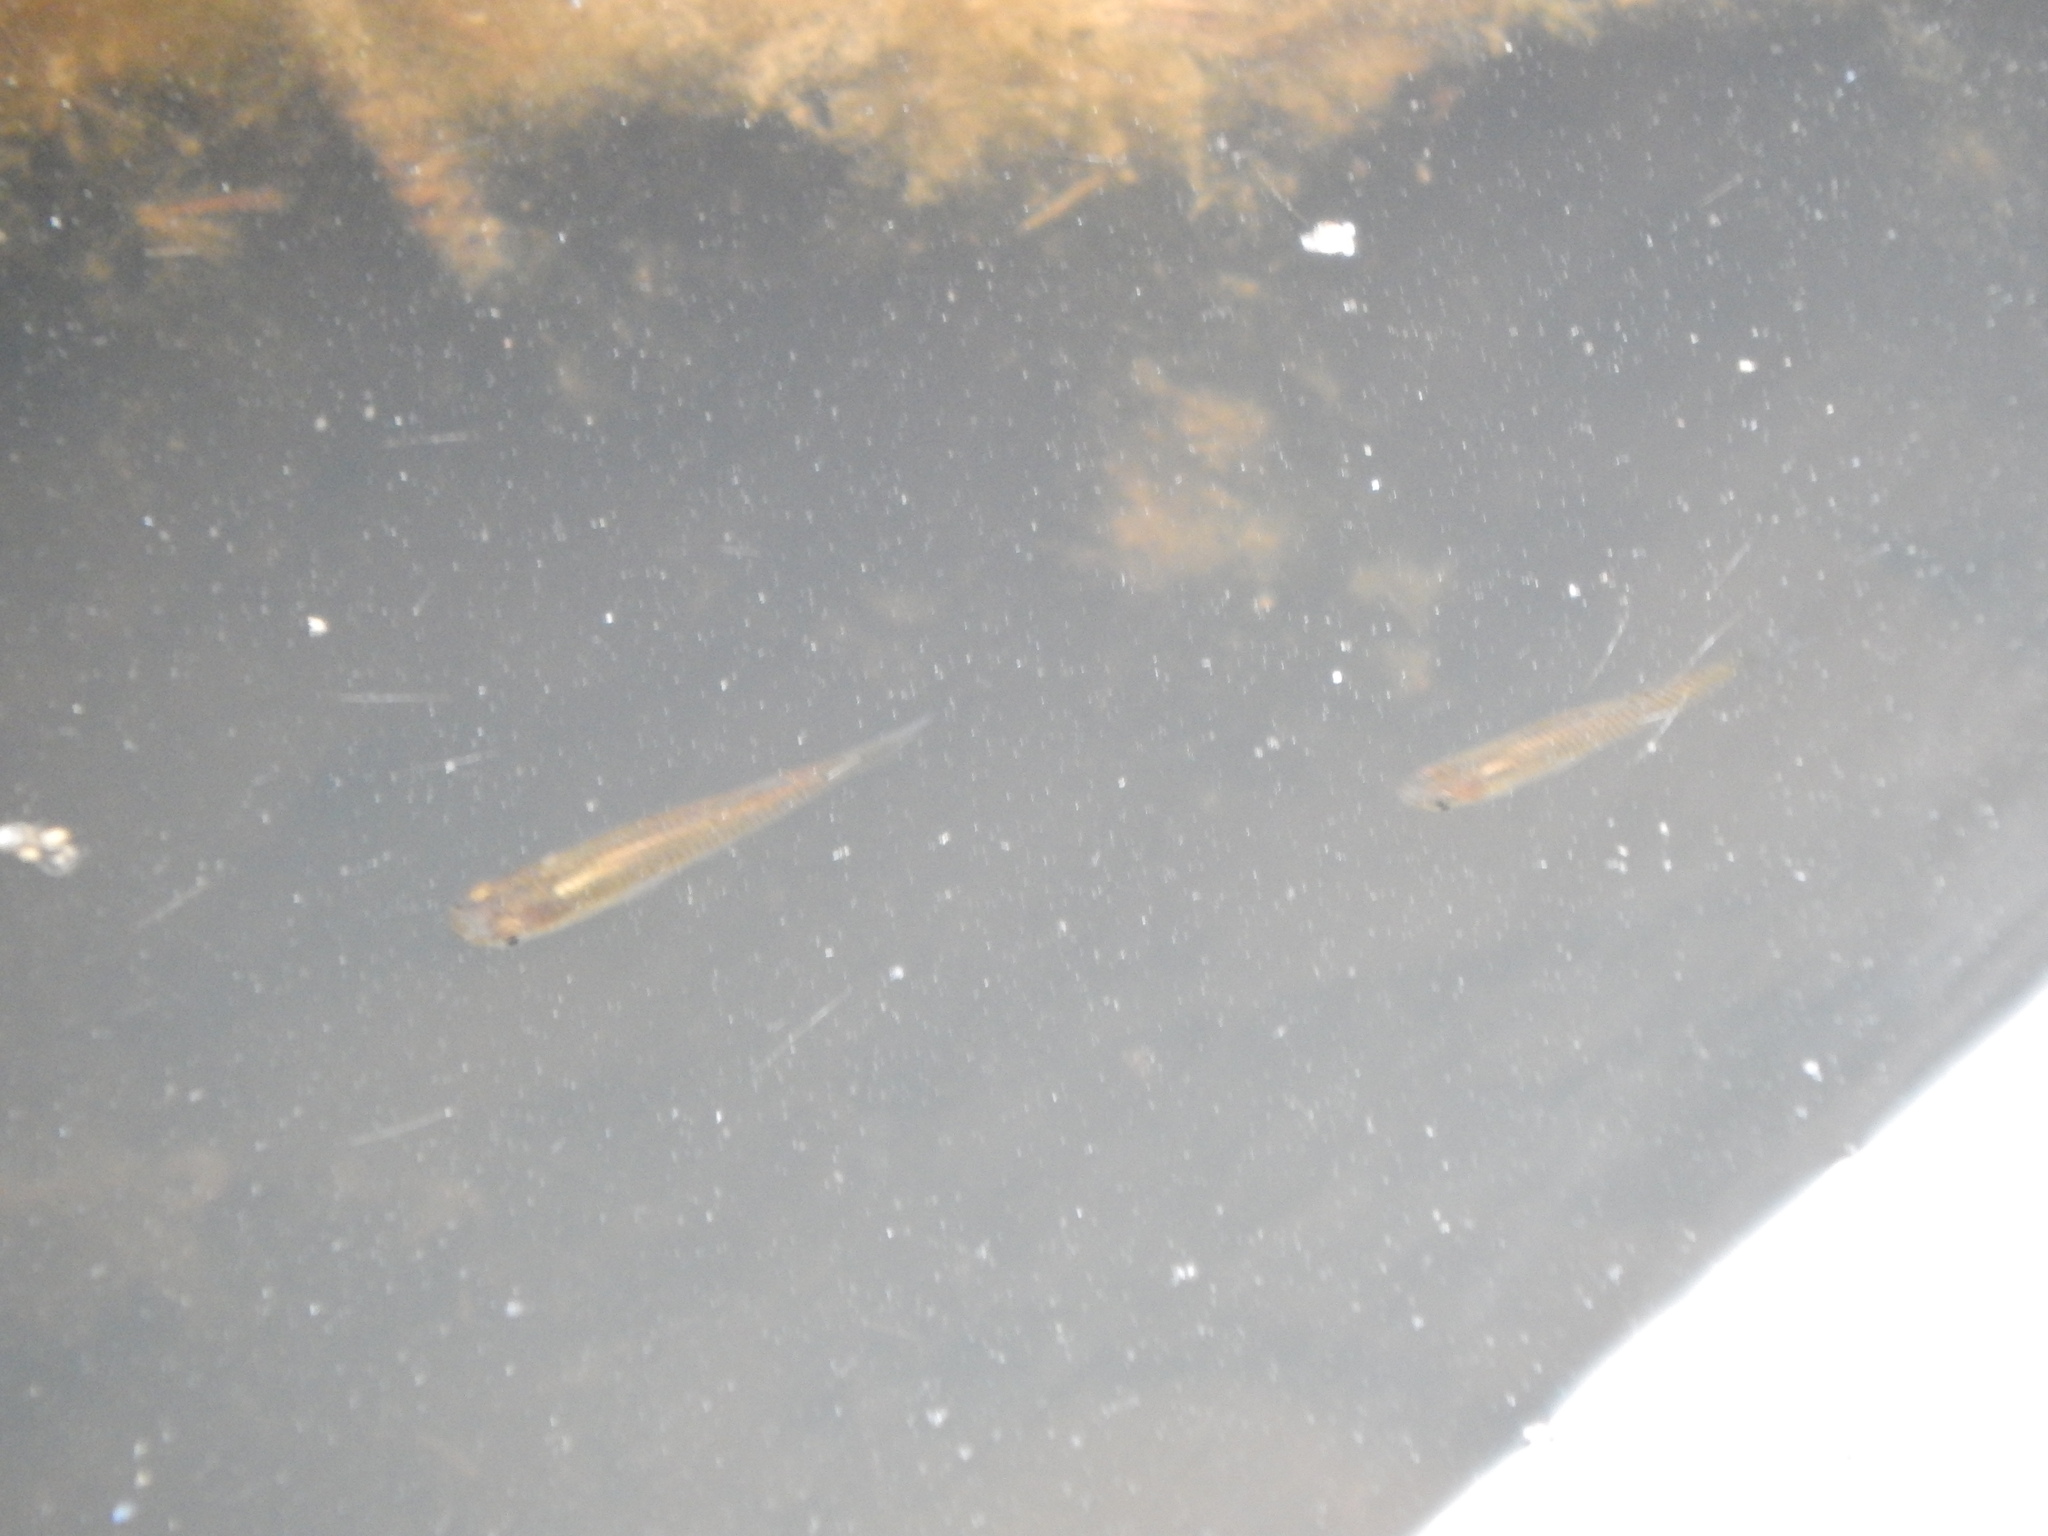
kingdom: Animalia
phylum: Chordata
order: Cyprinodontiformes
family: Poeciliidae
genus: Gambusia
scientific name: Gambusia holbrooki
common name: Eastern mosquitofish
